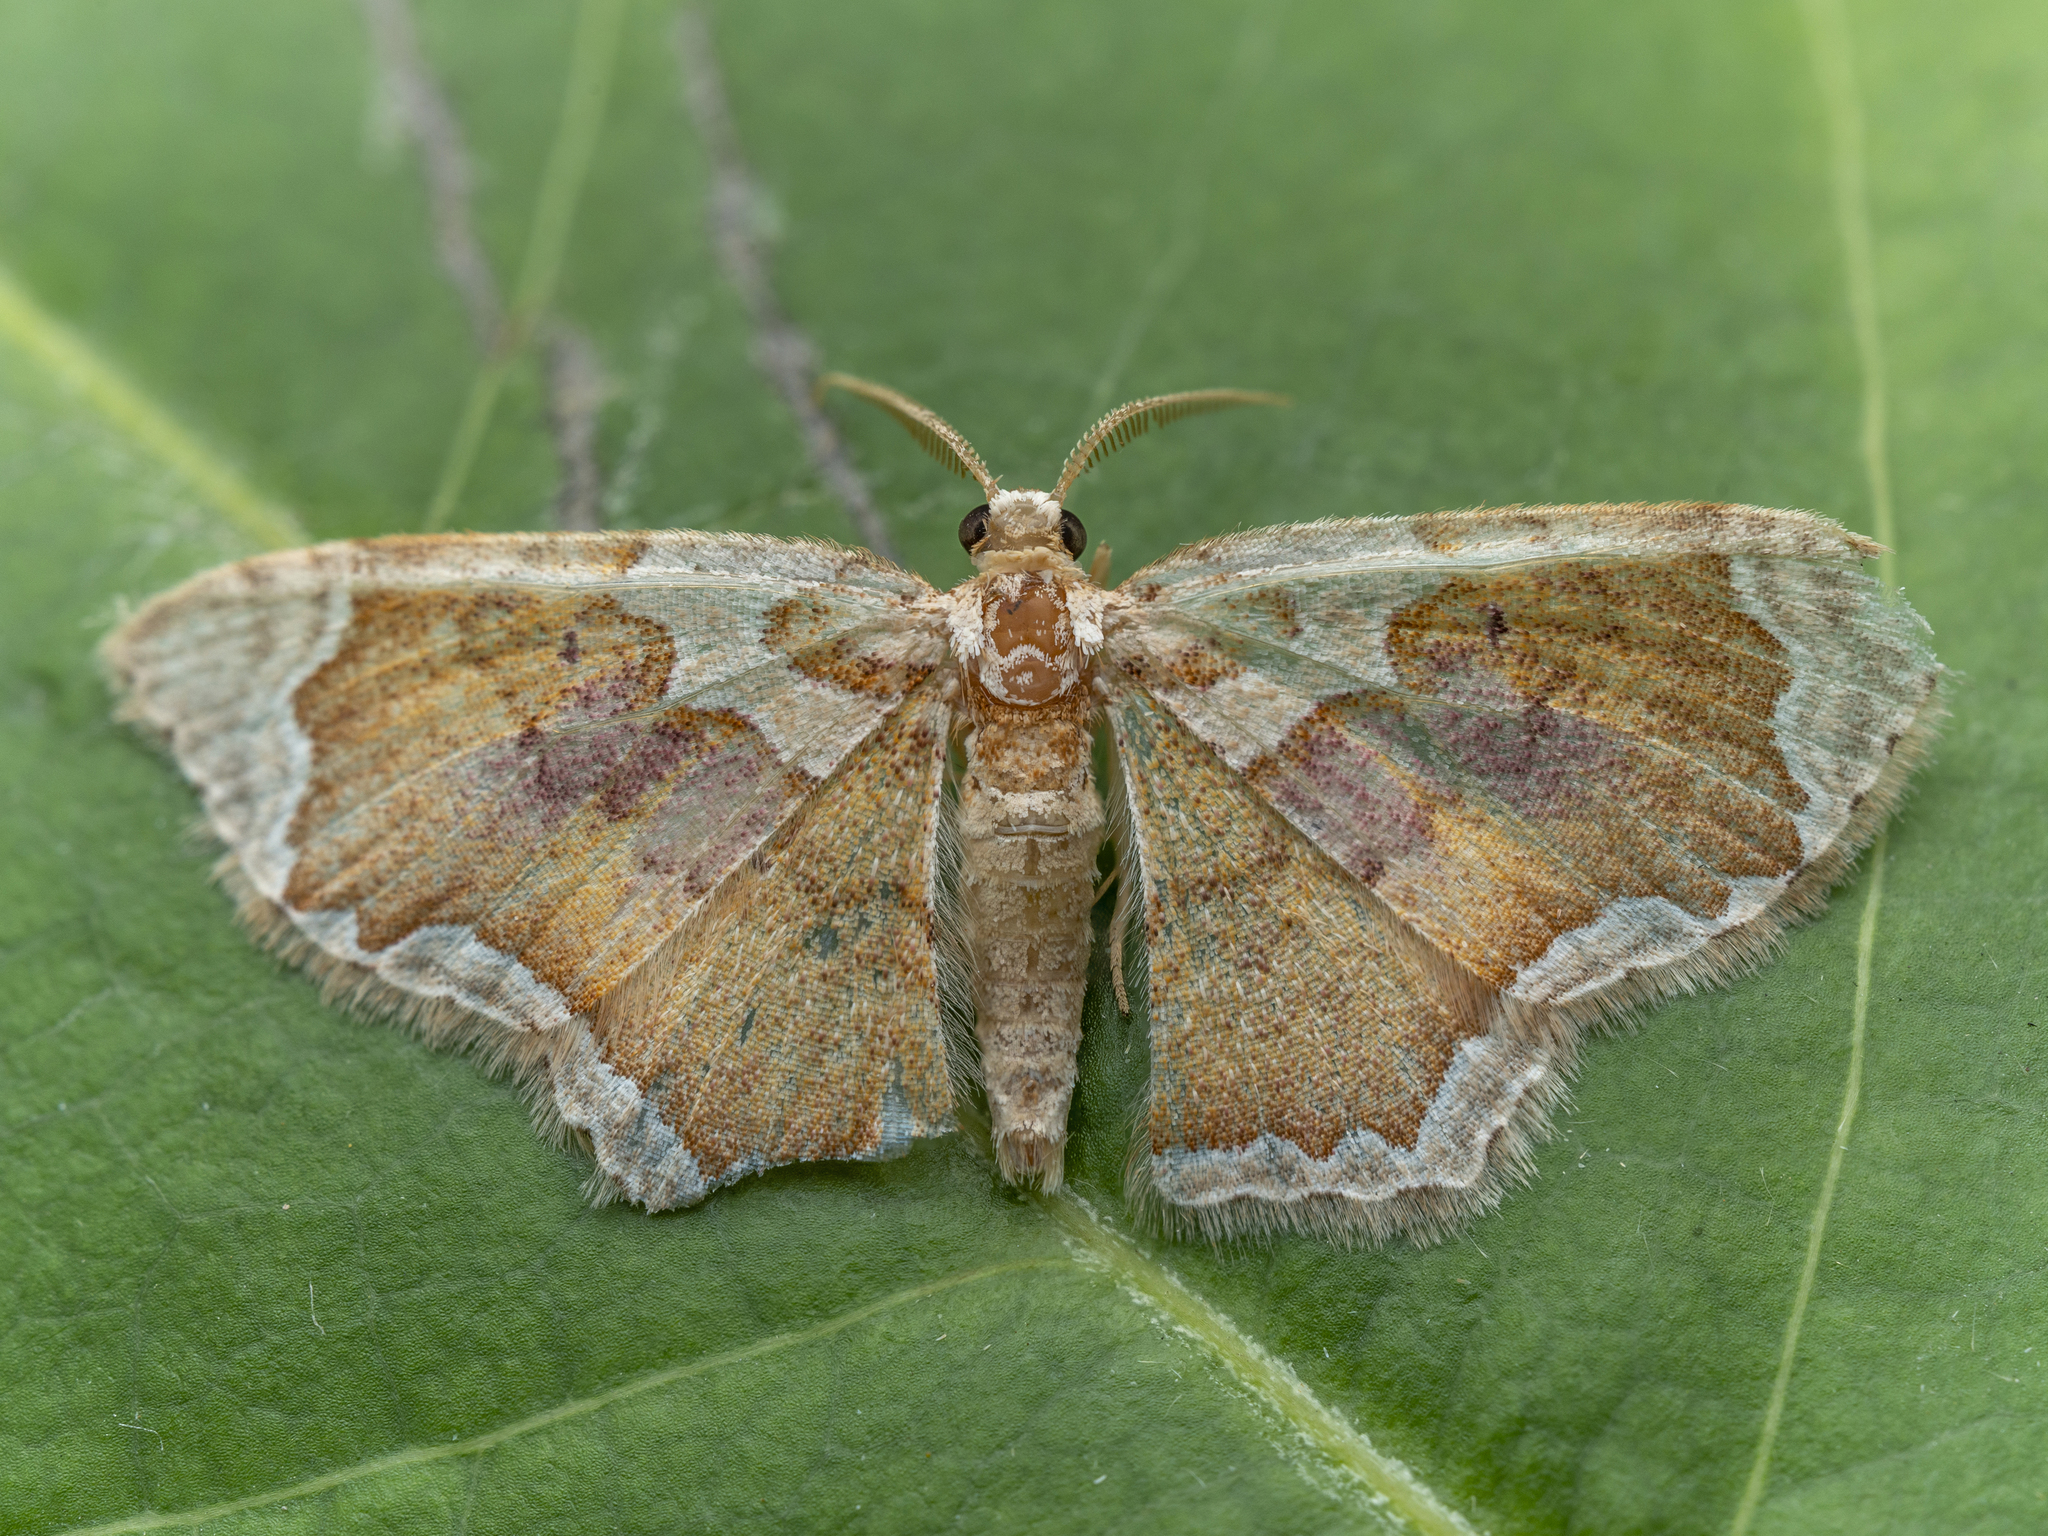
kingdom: Animalia
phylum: Arthropoda
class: Insecta
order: Lepidoptera
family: Geometridae
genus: Palpoctenidia
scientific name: Palpoctenidia phoenicosoma
